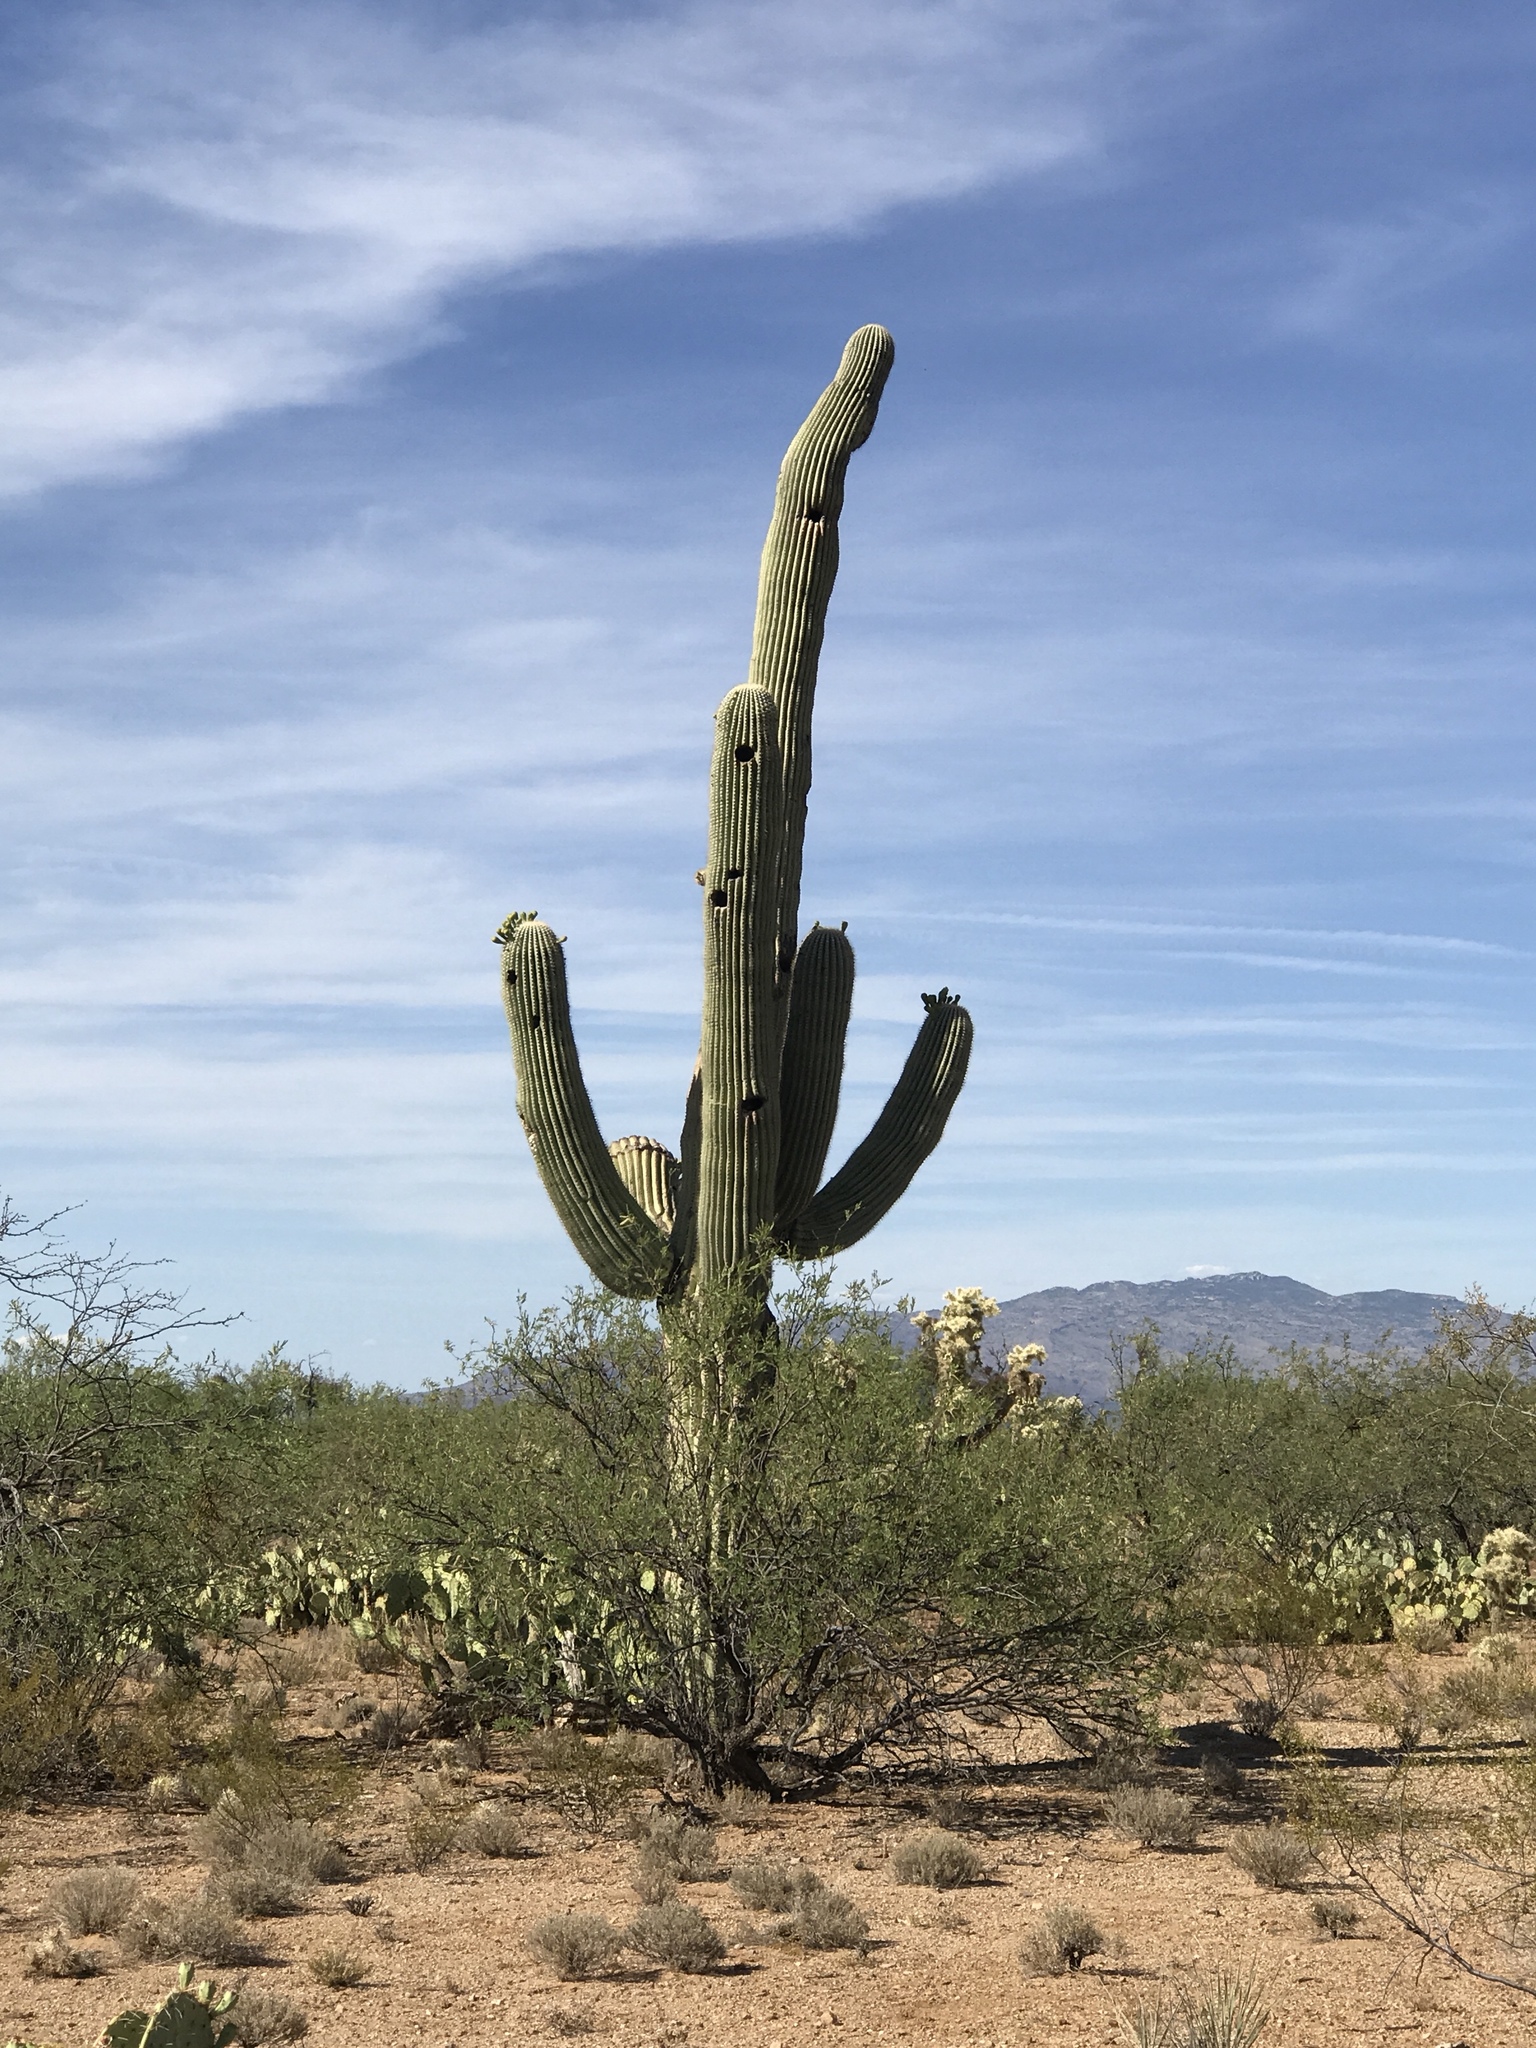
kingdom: Plantae
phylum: Tracheophyta
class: Magnoliopsida
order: Caryophyllales
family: Cactaceae
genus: Carnegiea
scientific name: Carnegiea gigantea
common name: Saguaro
